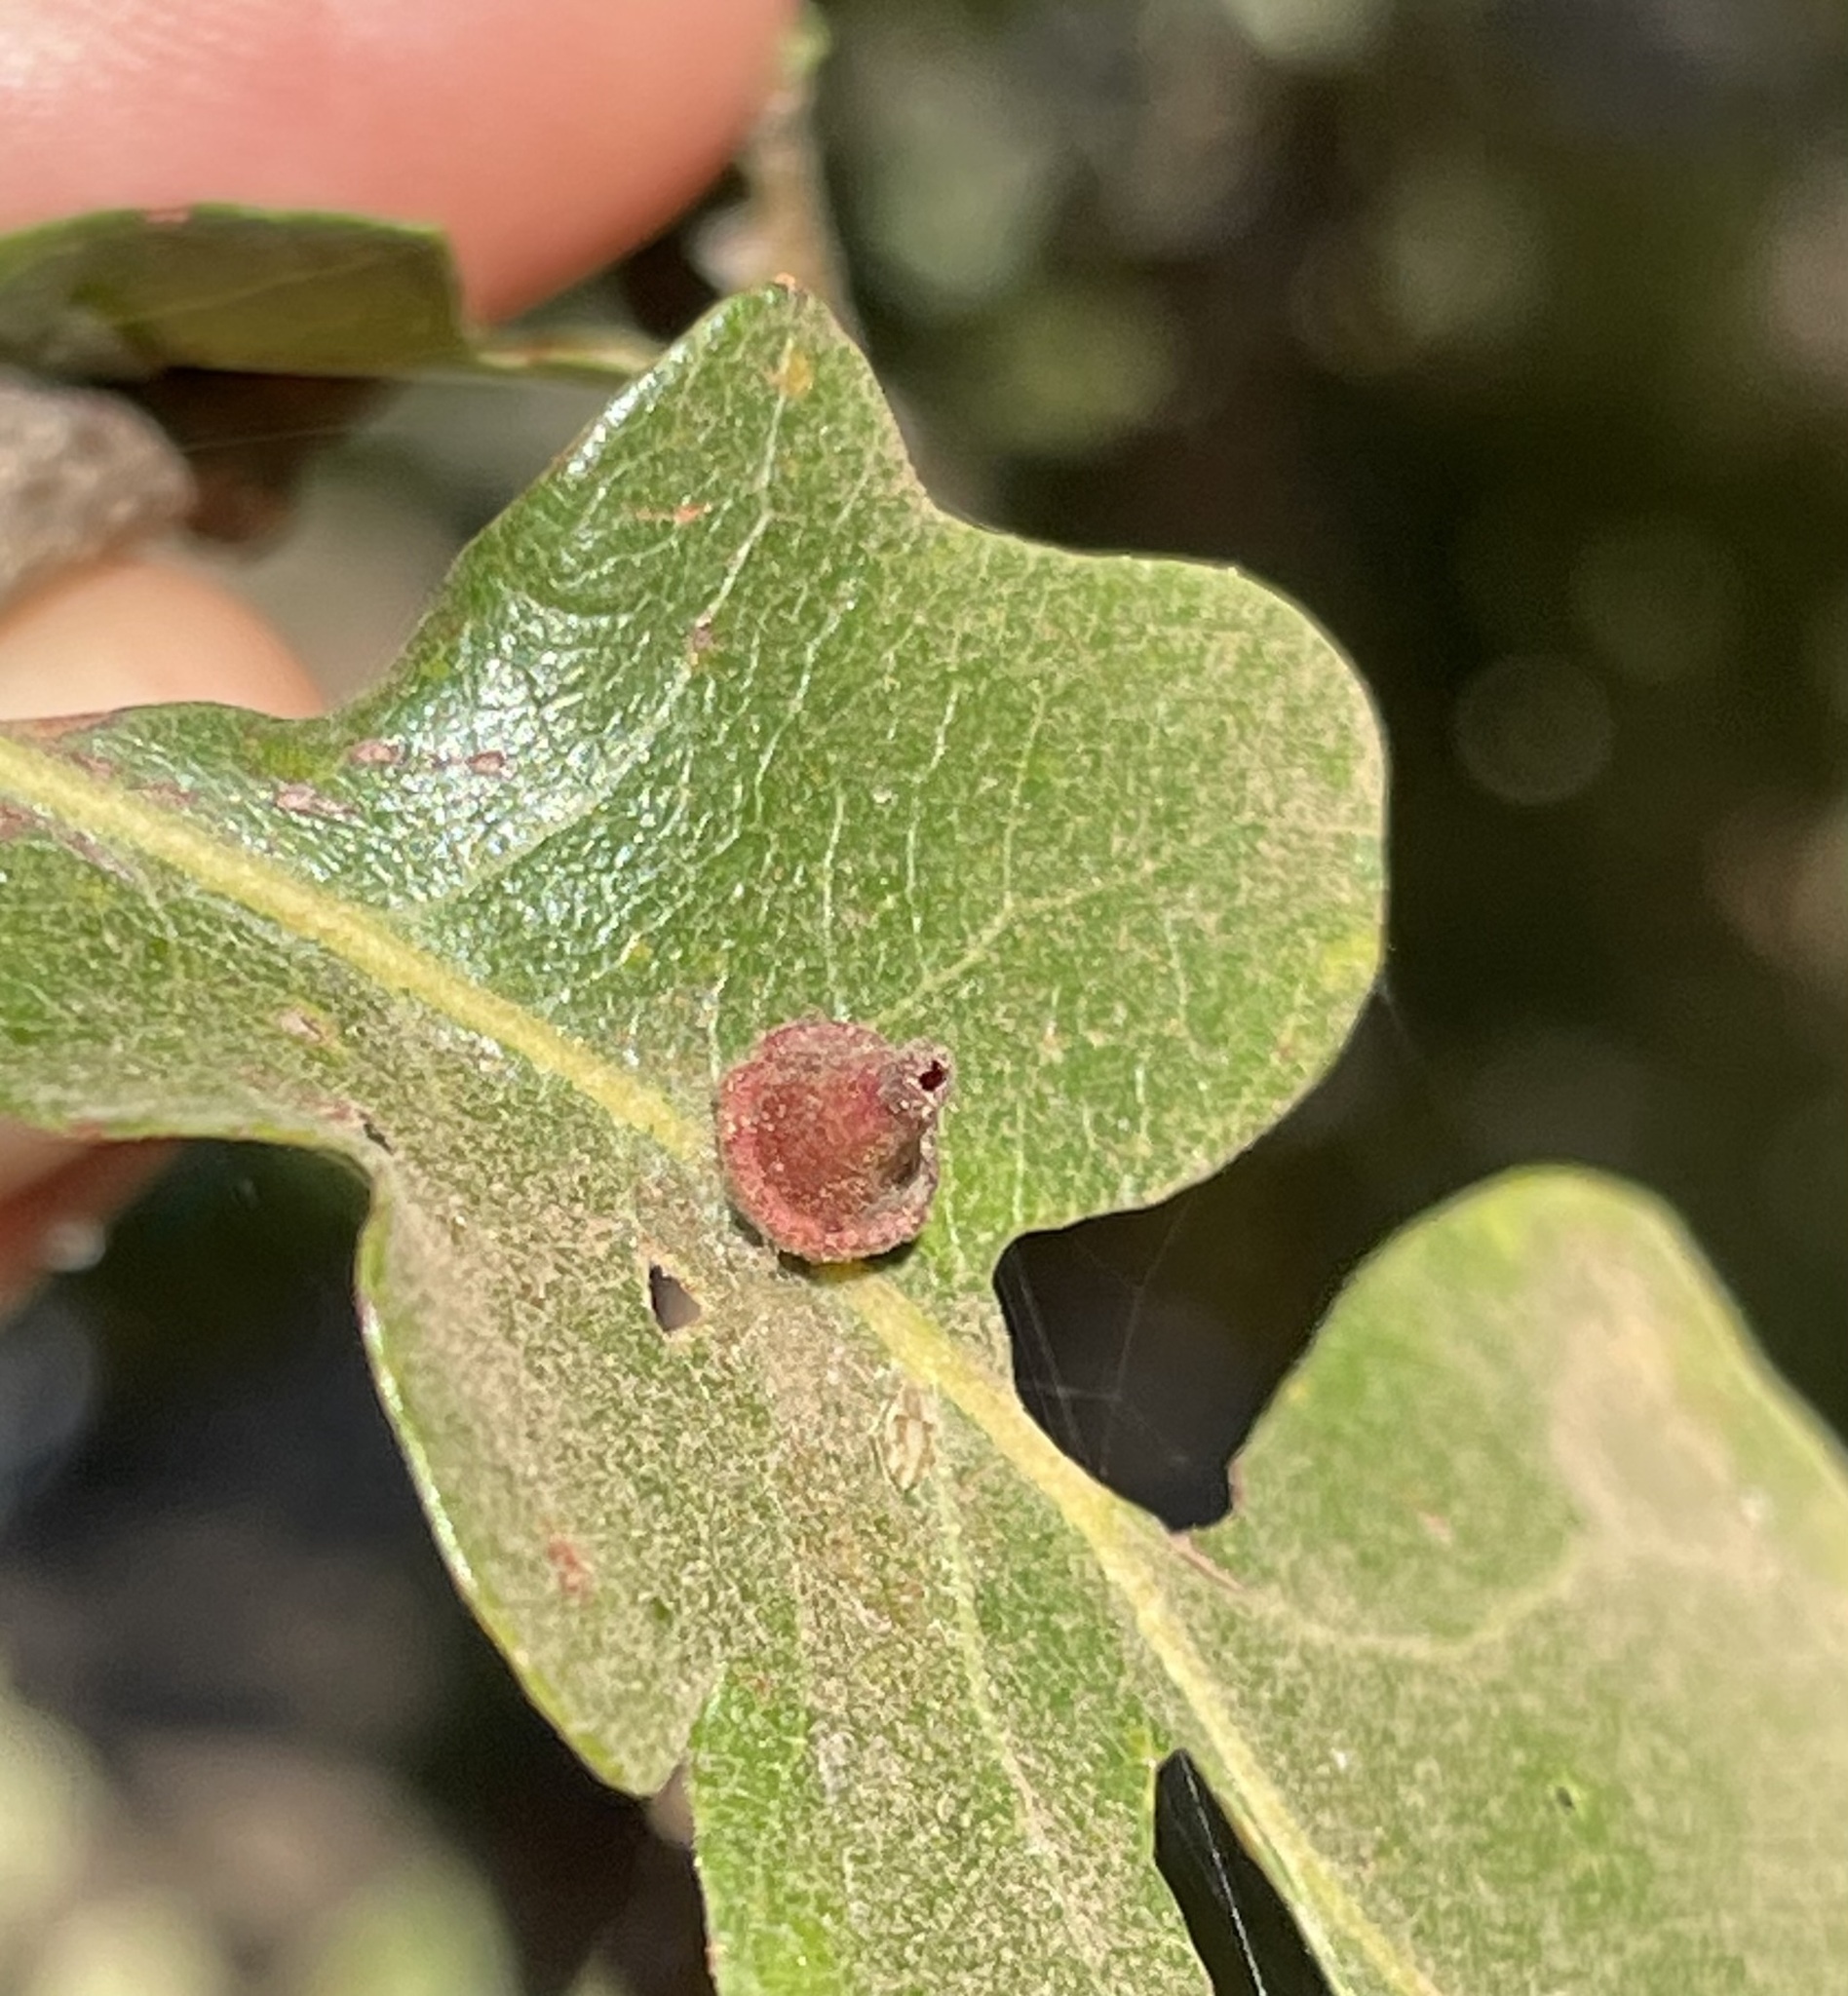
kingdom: Animalia
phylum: Arthropoda
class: Insecta
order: Hymenoptera
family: Cynipidae
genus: Andricus
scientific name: Andricus
